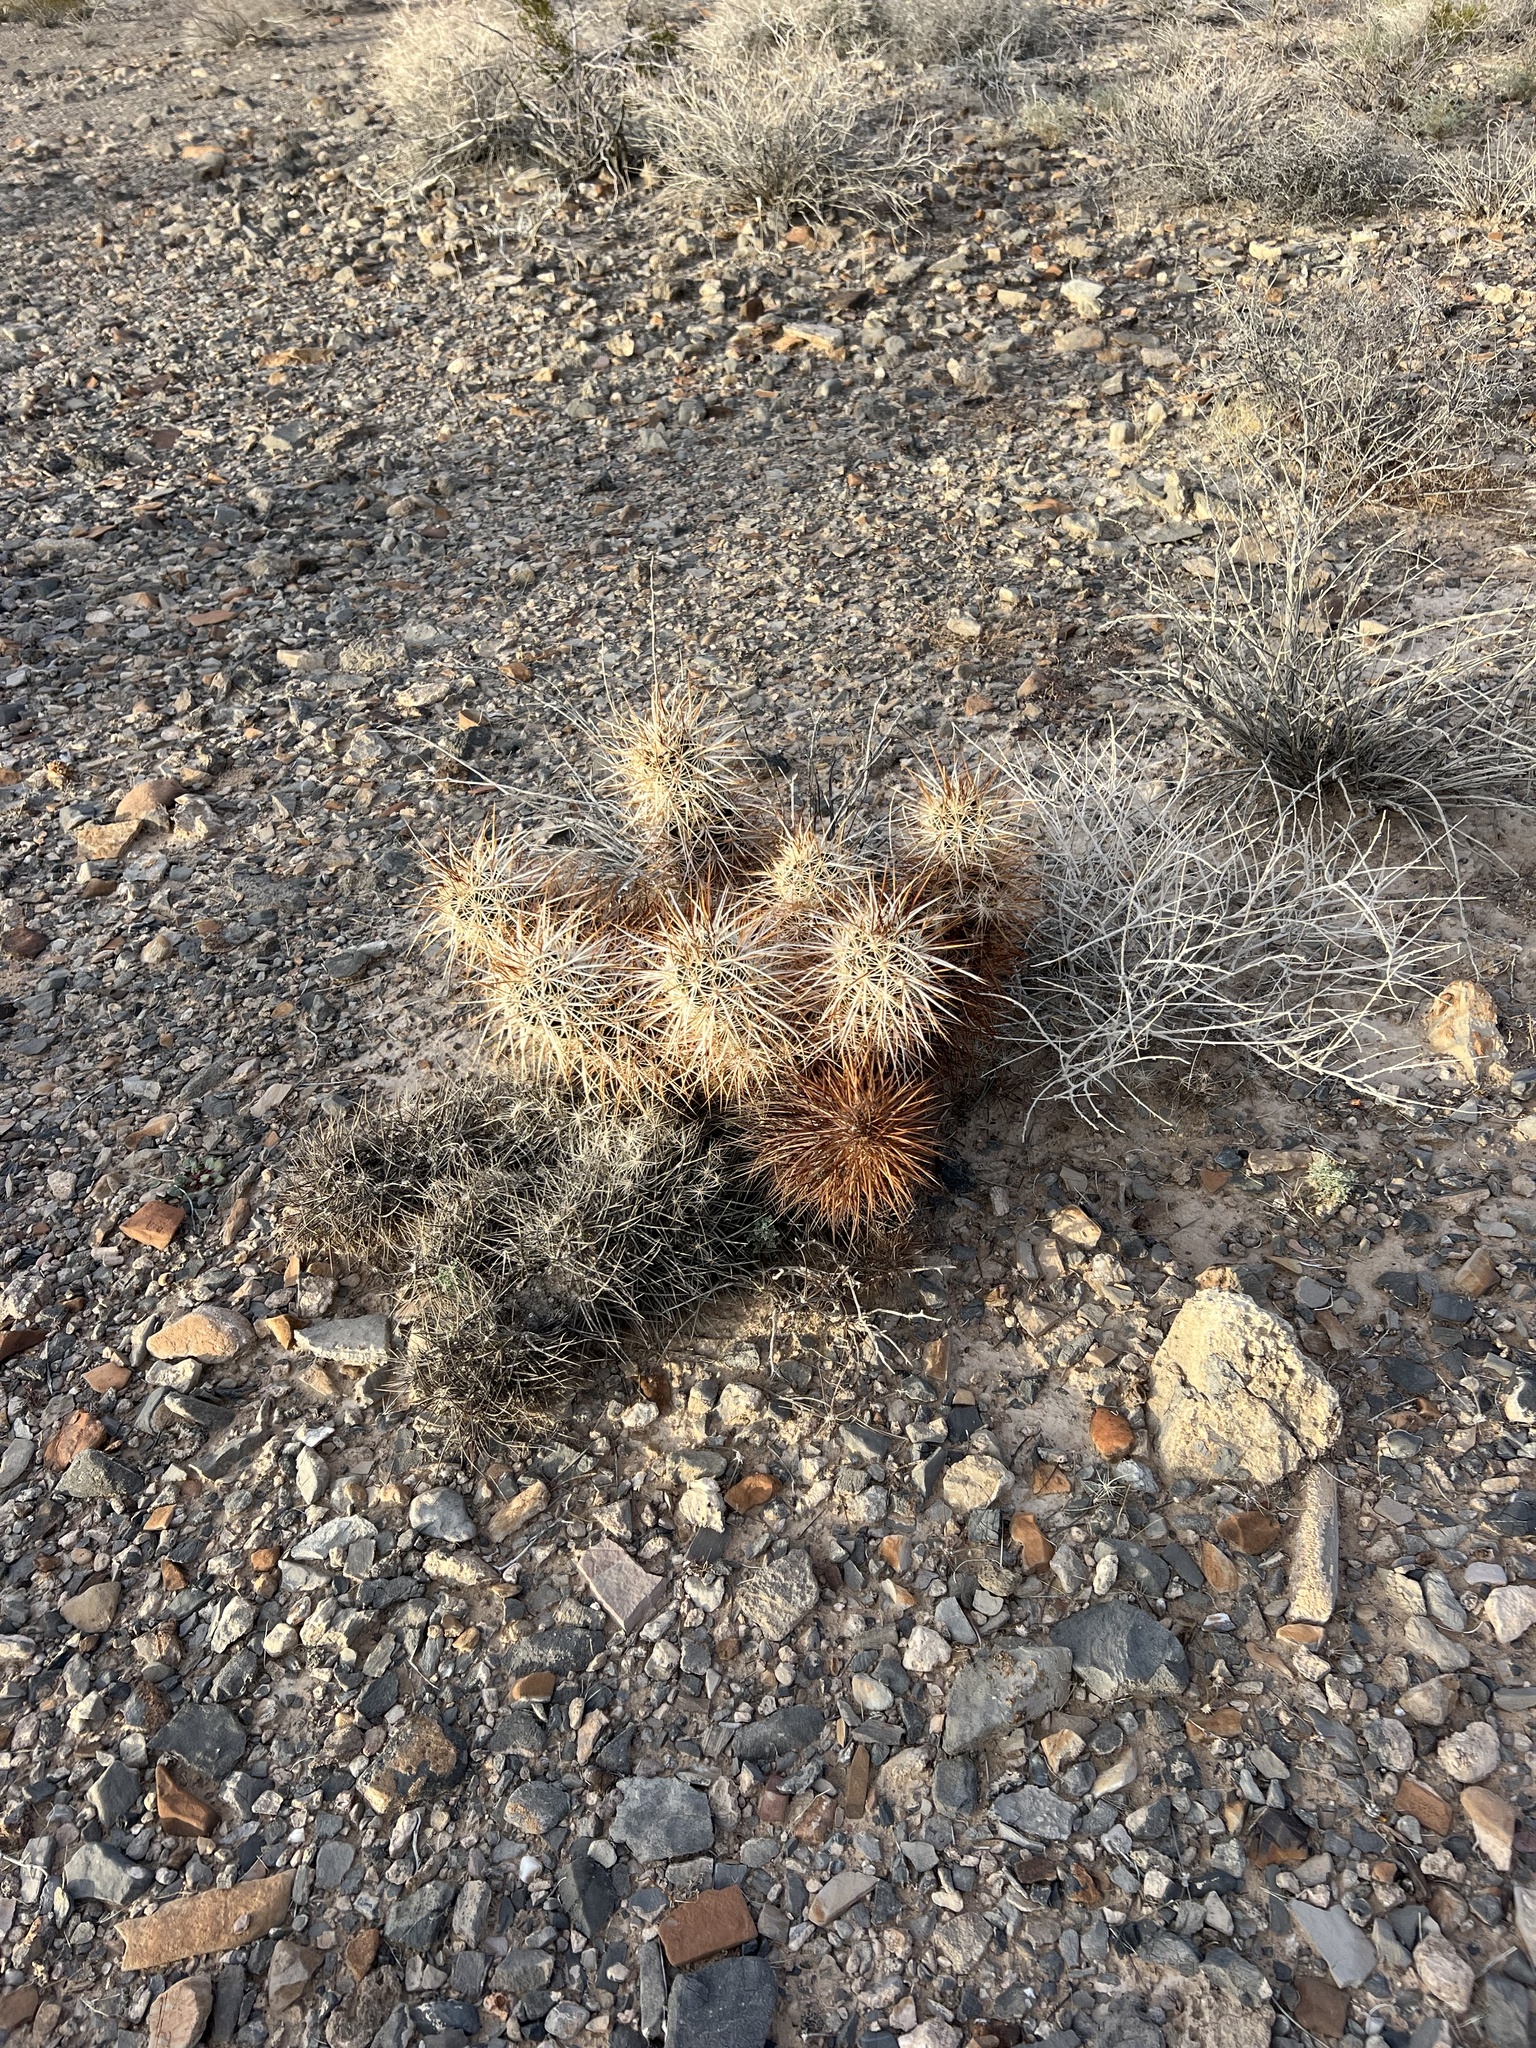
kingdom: Plantae
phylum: Tracheophyta
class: Magnoliopsida
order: Caryophyllales
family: Cactaceae
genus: Echinocereus
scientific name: Echinocereus engelmannii
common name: Engelmann's hedgehog cactus
